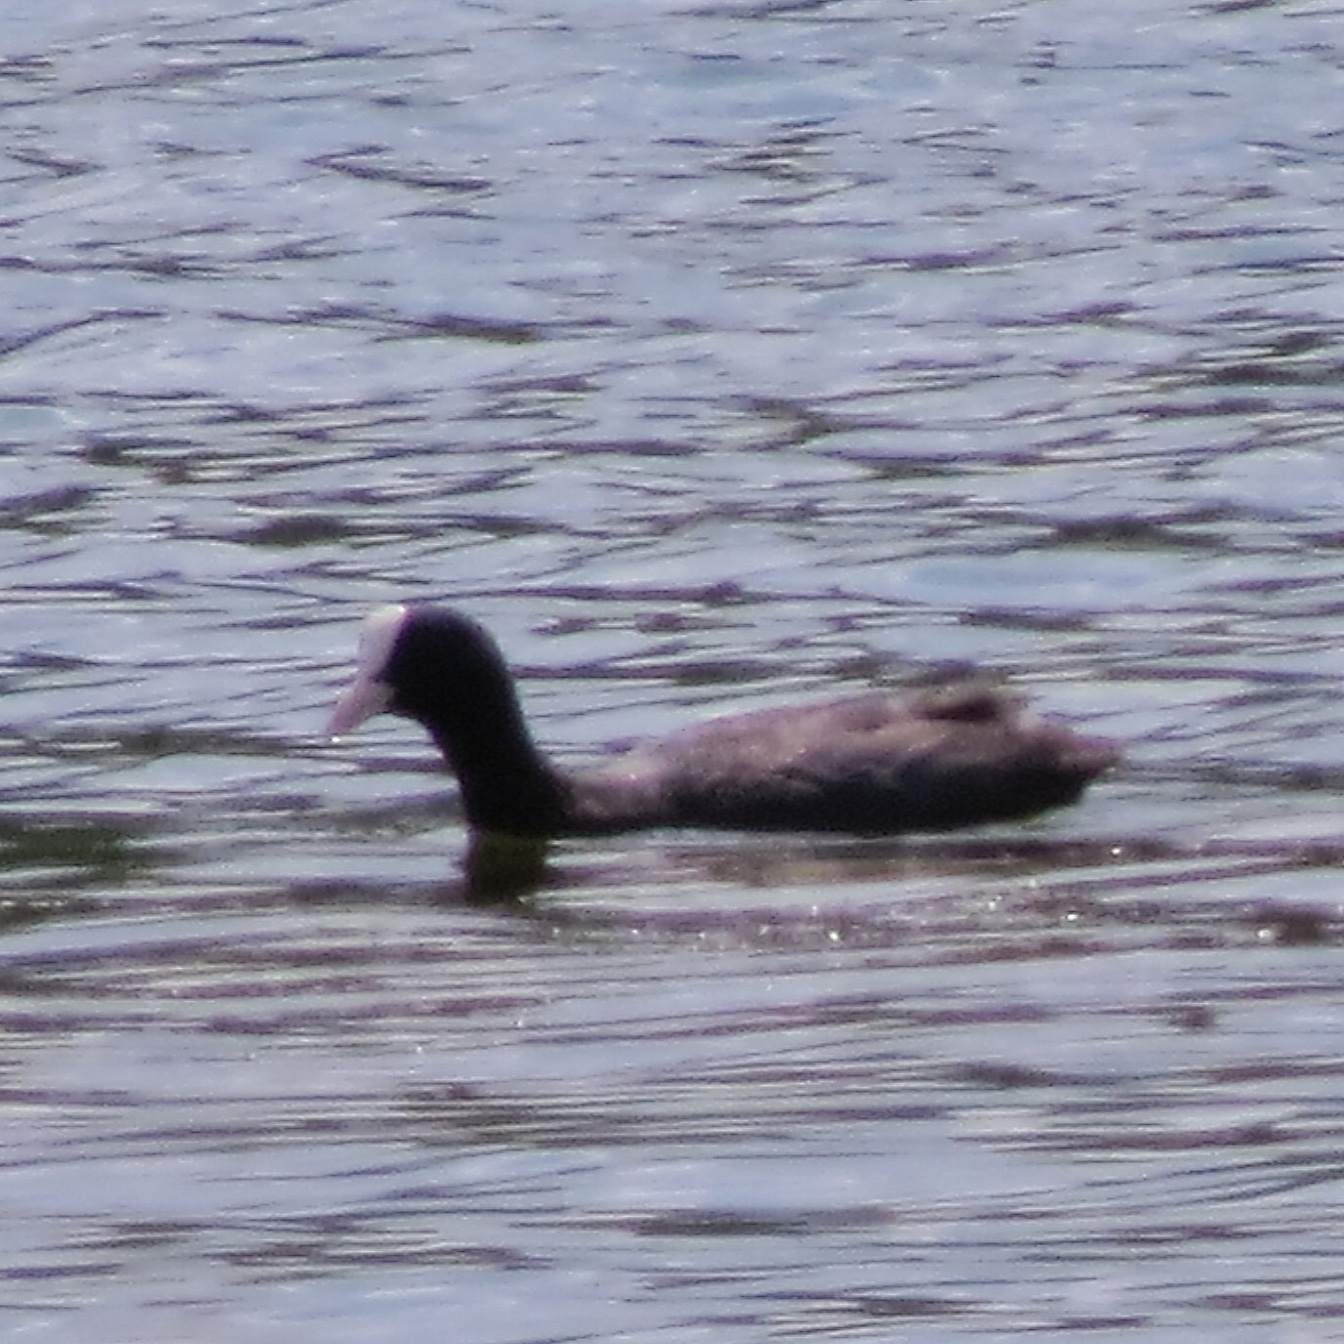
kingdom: Animalia
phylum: Chordata
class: Aves
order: Gruiformes
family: Rallidae
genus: Fulica
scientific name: Fulica atra
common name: Eurasian coot
